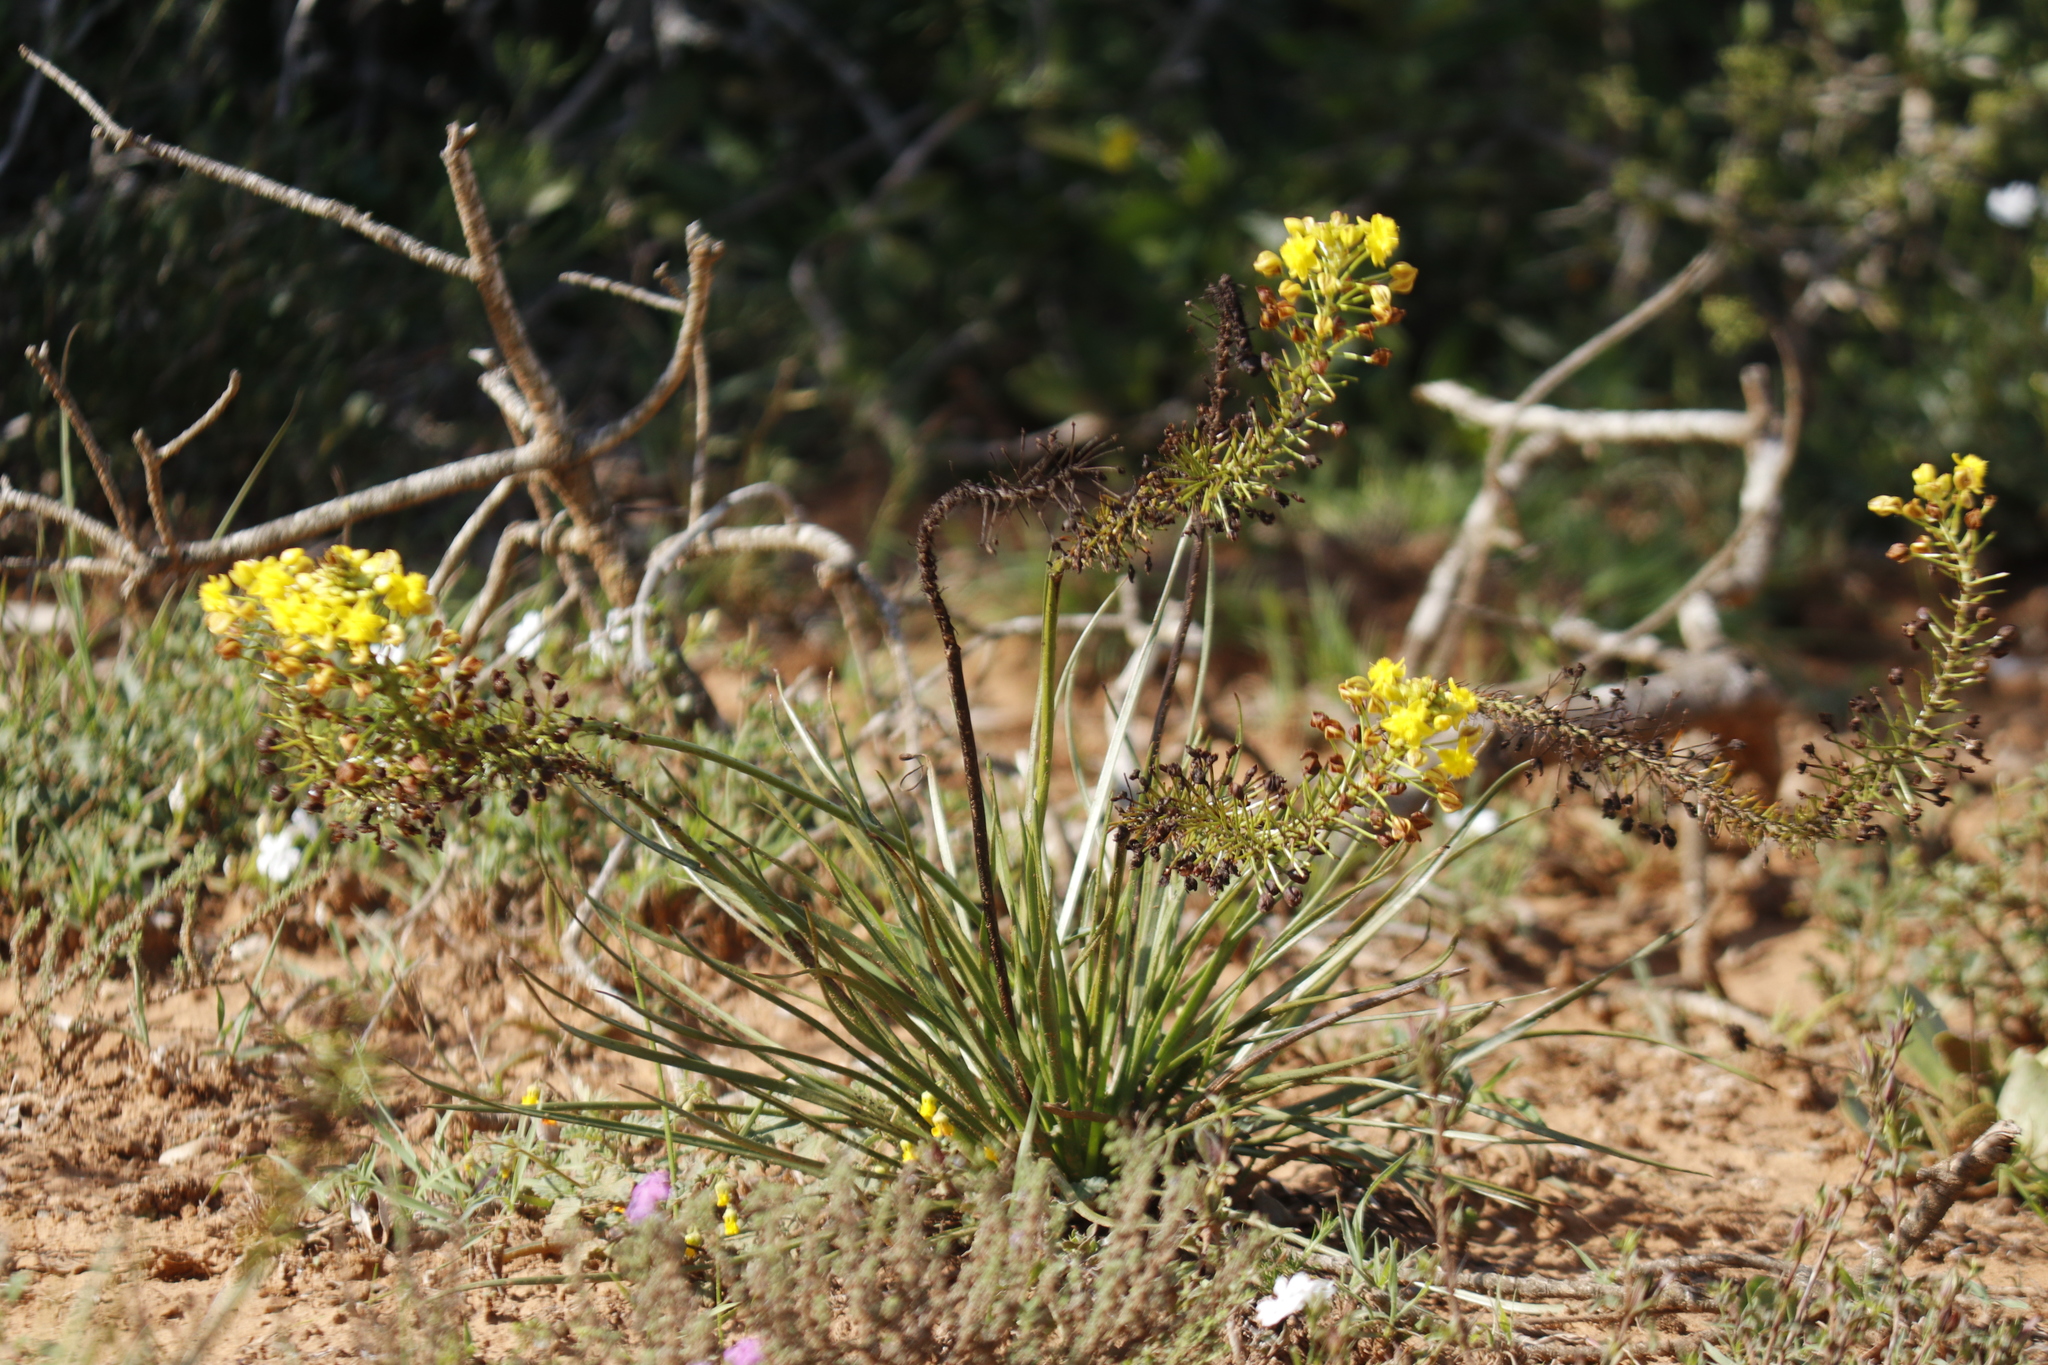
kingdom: Plantae
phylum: Tracheophyta
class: Liliopsida
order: Asparagales
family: Asphodelaceae
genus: Bulbine
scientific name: Bulbine abyssinica
